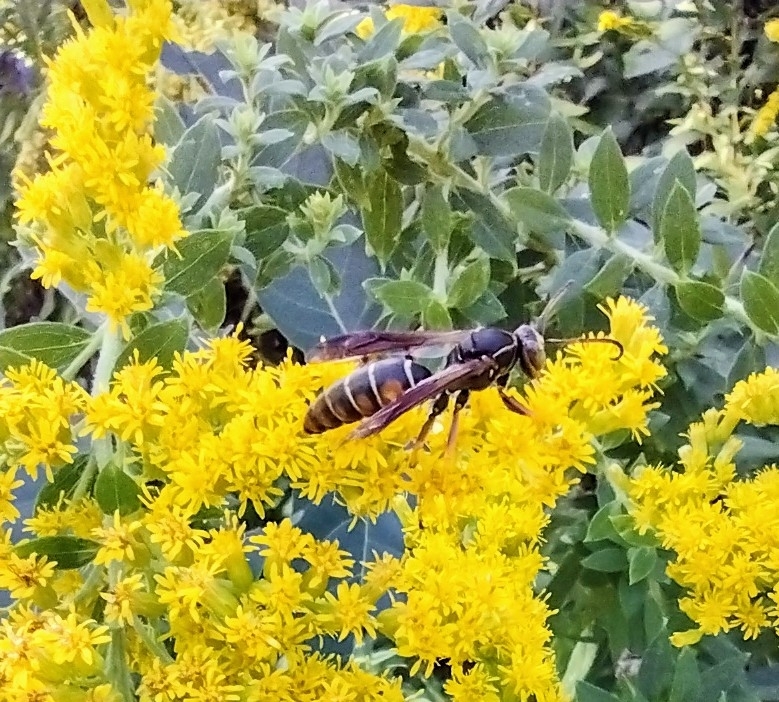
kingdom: Animalia
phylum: Arthropoda
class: Insecta
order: Hymenoptera
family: Eumenidae
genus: Polistes
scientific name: Polistes fuscatus
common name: Dark paper wasp
